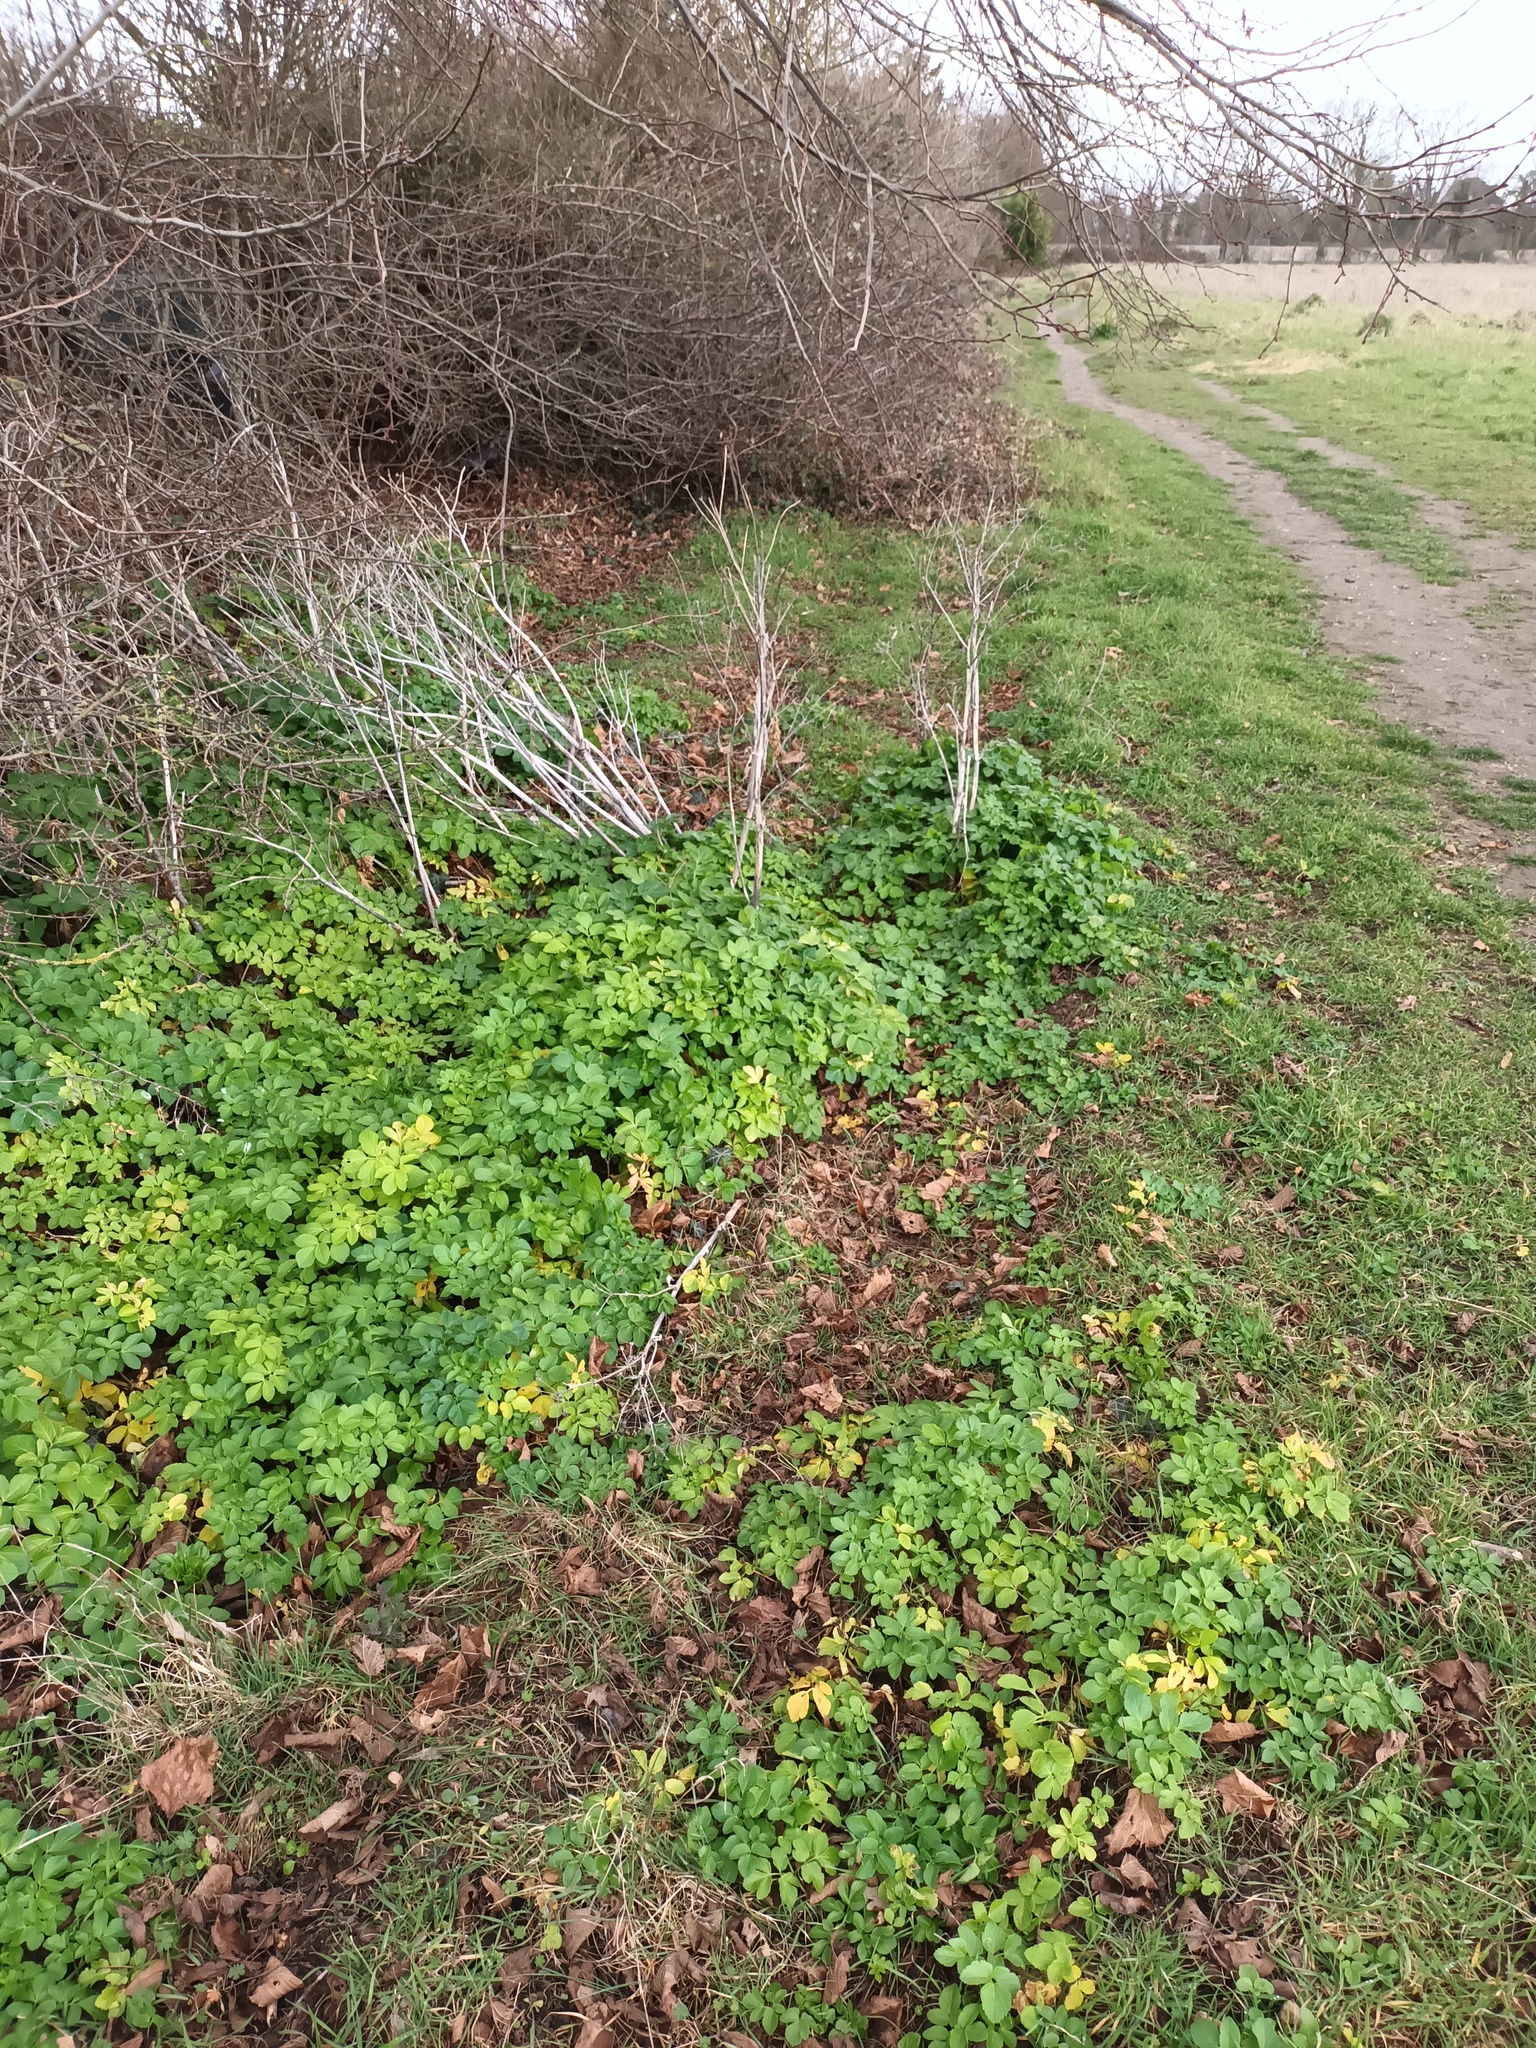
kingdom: Plantae
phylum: Tracheophyta
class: Magnoliopsida
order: Apiales
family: Apiaceae
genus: Smyrnium
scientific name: Smyrnium olusatrum
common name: Alexanders
